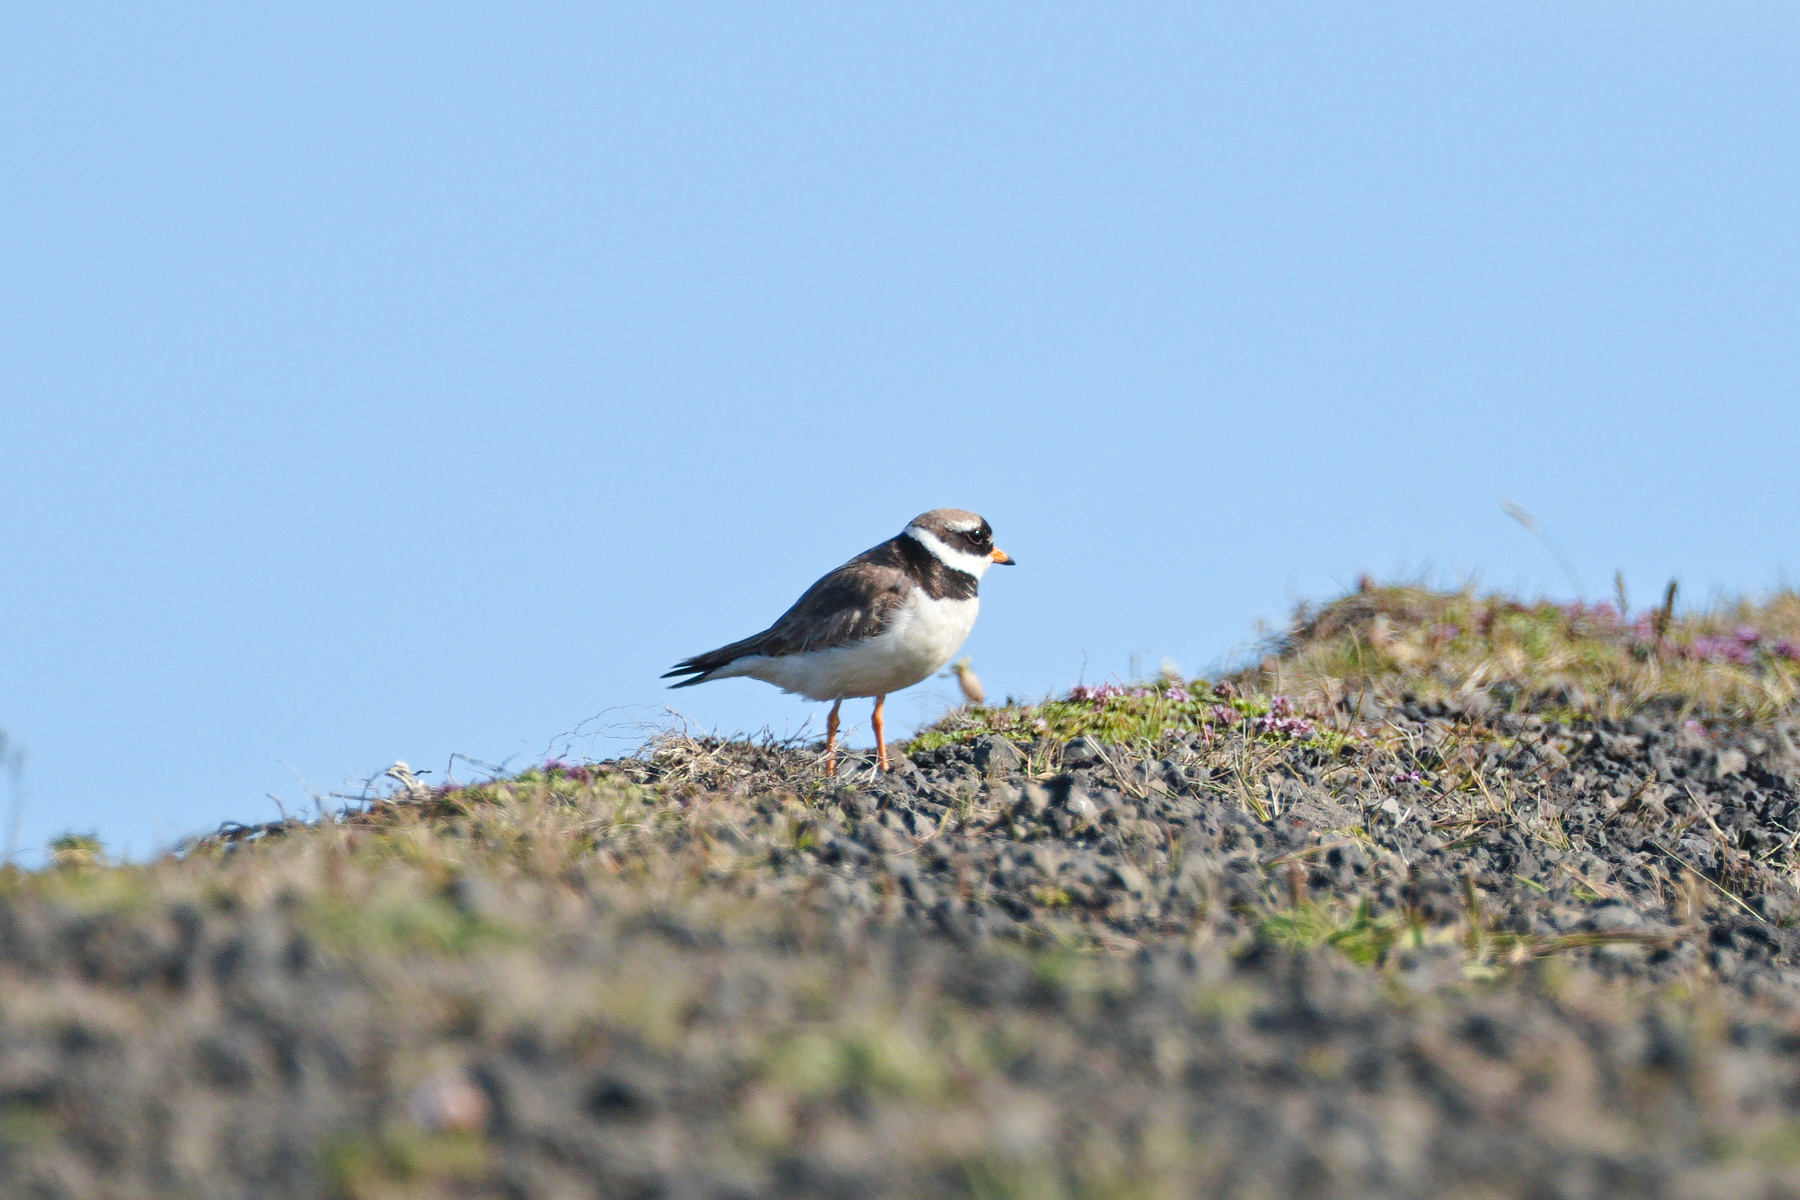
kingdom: Animalia
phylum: Chordata
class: Aves
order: Charadriiformes
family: Charadriidae
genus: Charadrius
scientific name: Charadrius hiaticula
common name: Common ringed plover
